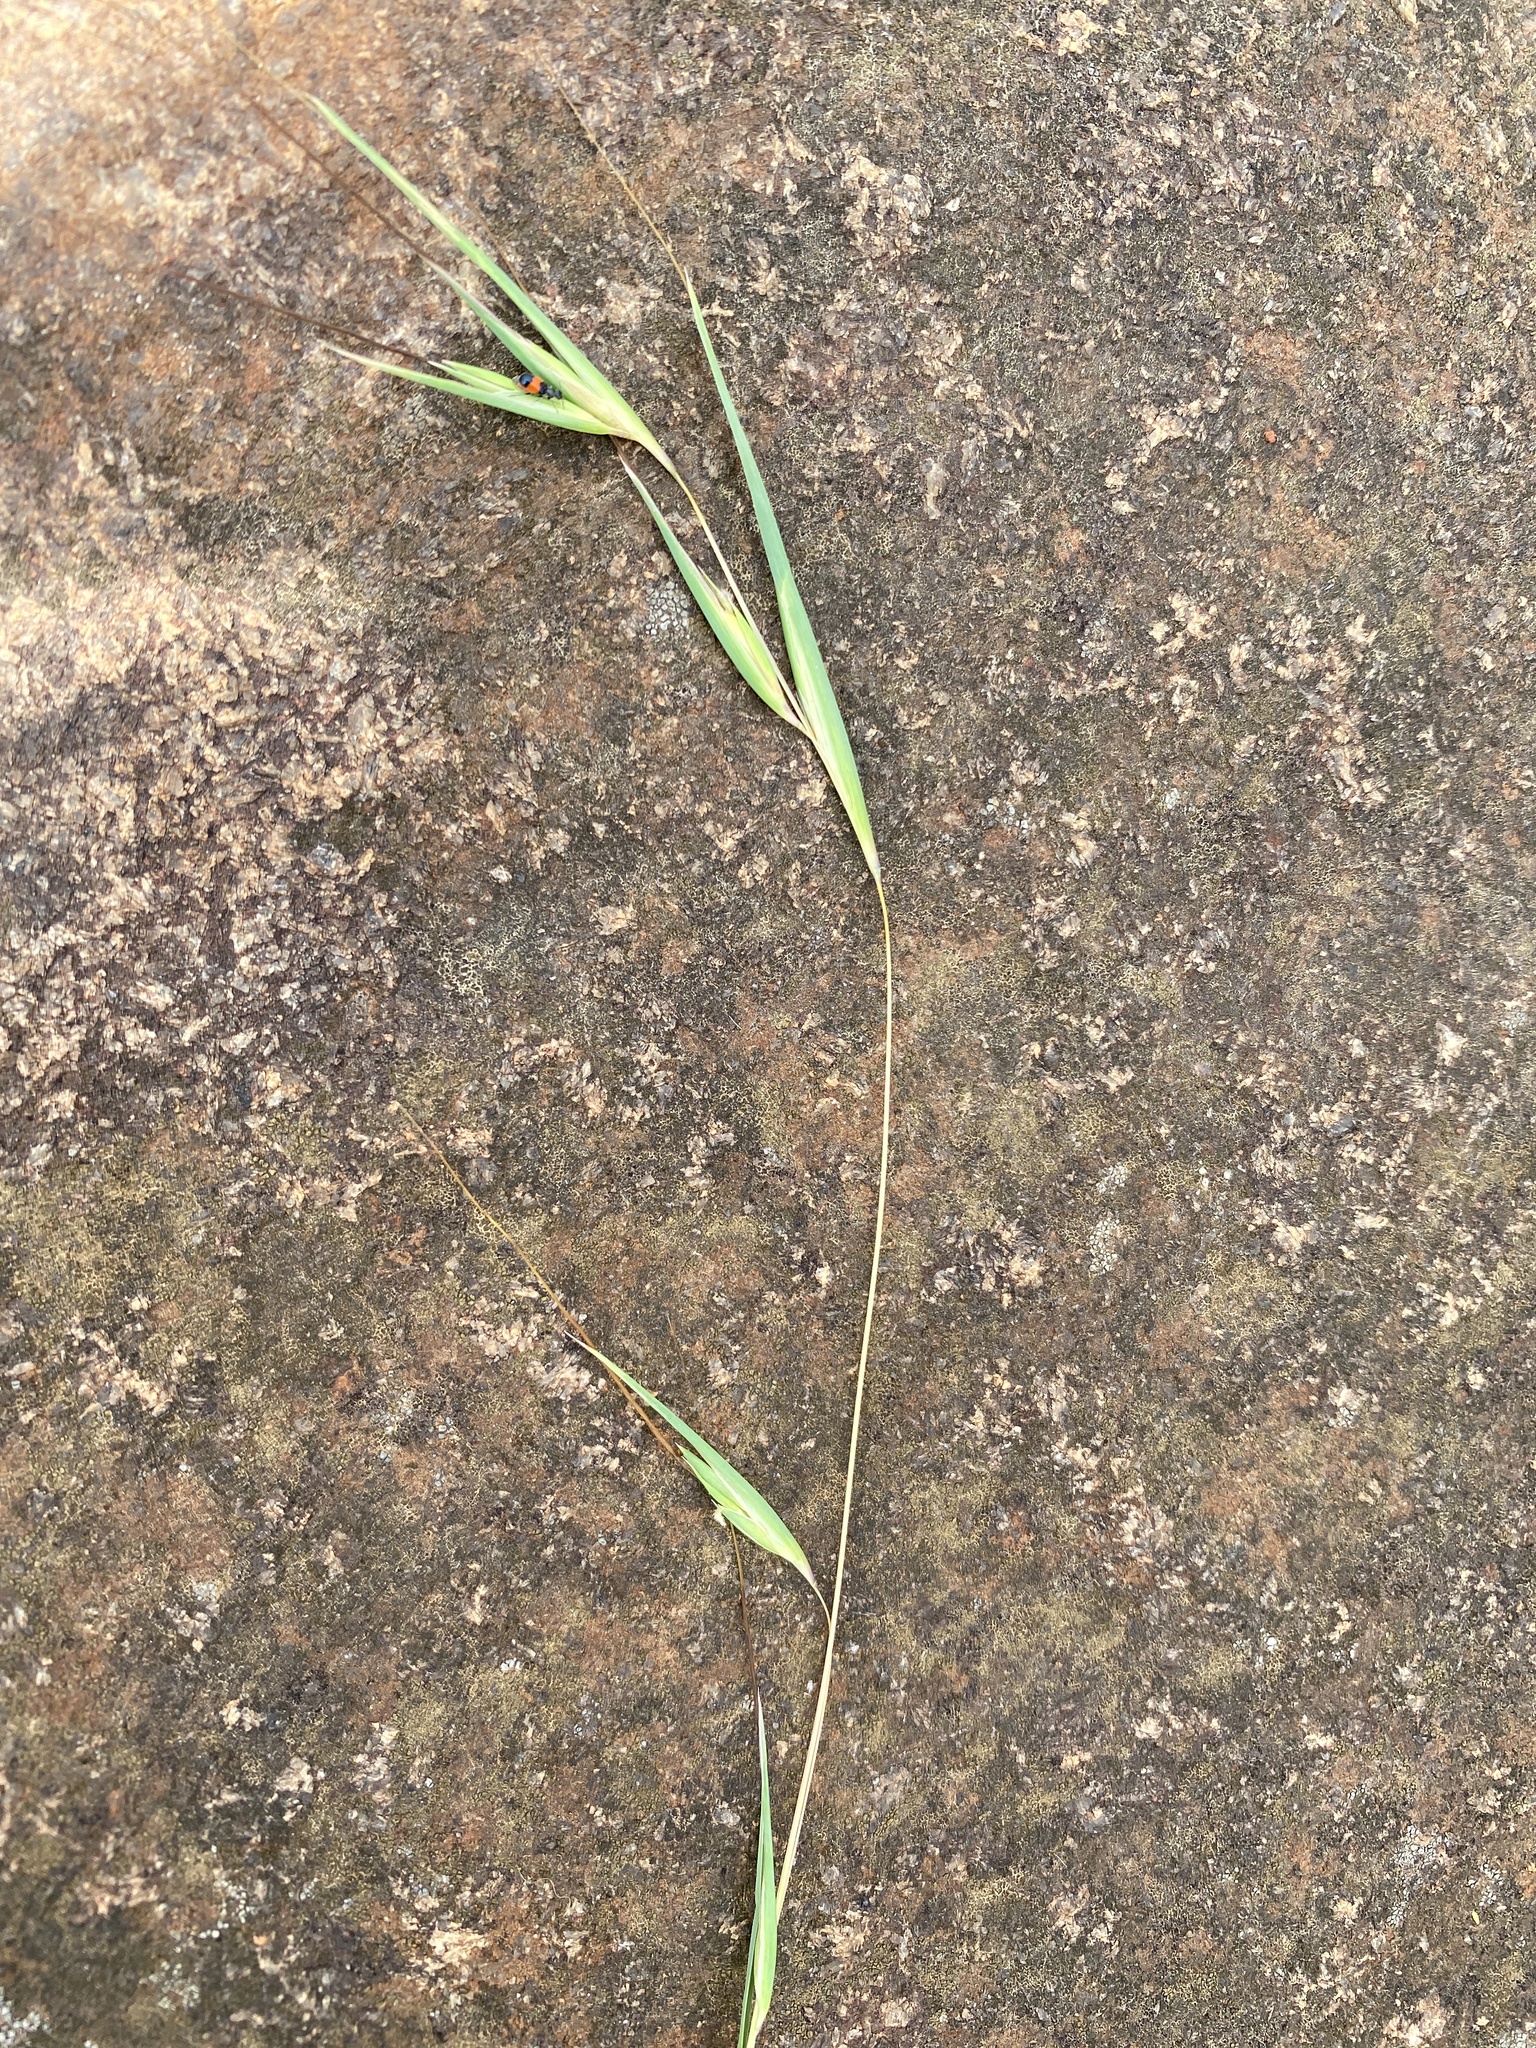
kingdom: Plantae
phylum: Tracheophyta
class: Liliopsida
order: Poales
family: Poaceae
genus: Themeda
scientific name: Themeda triandra
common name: Kangaroo grass
